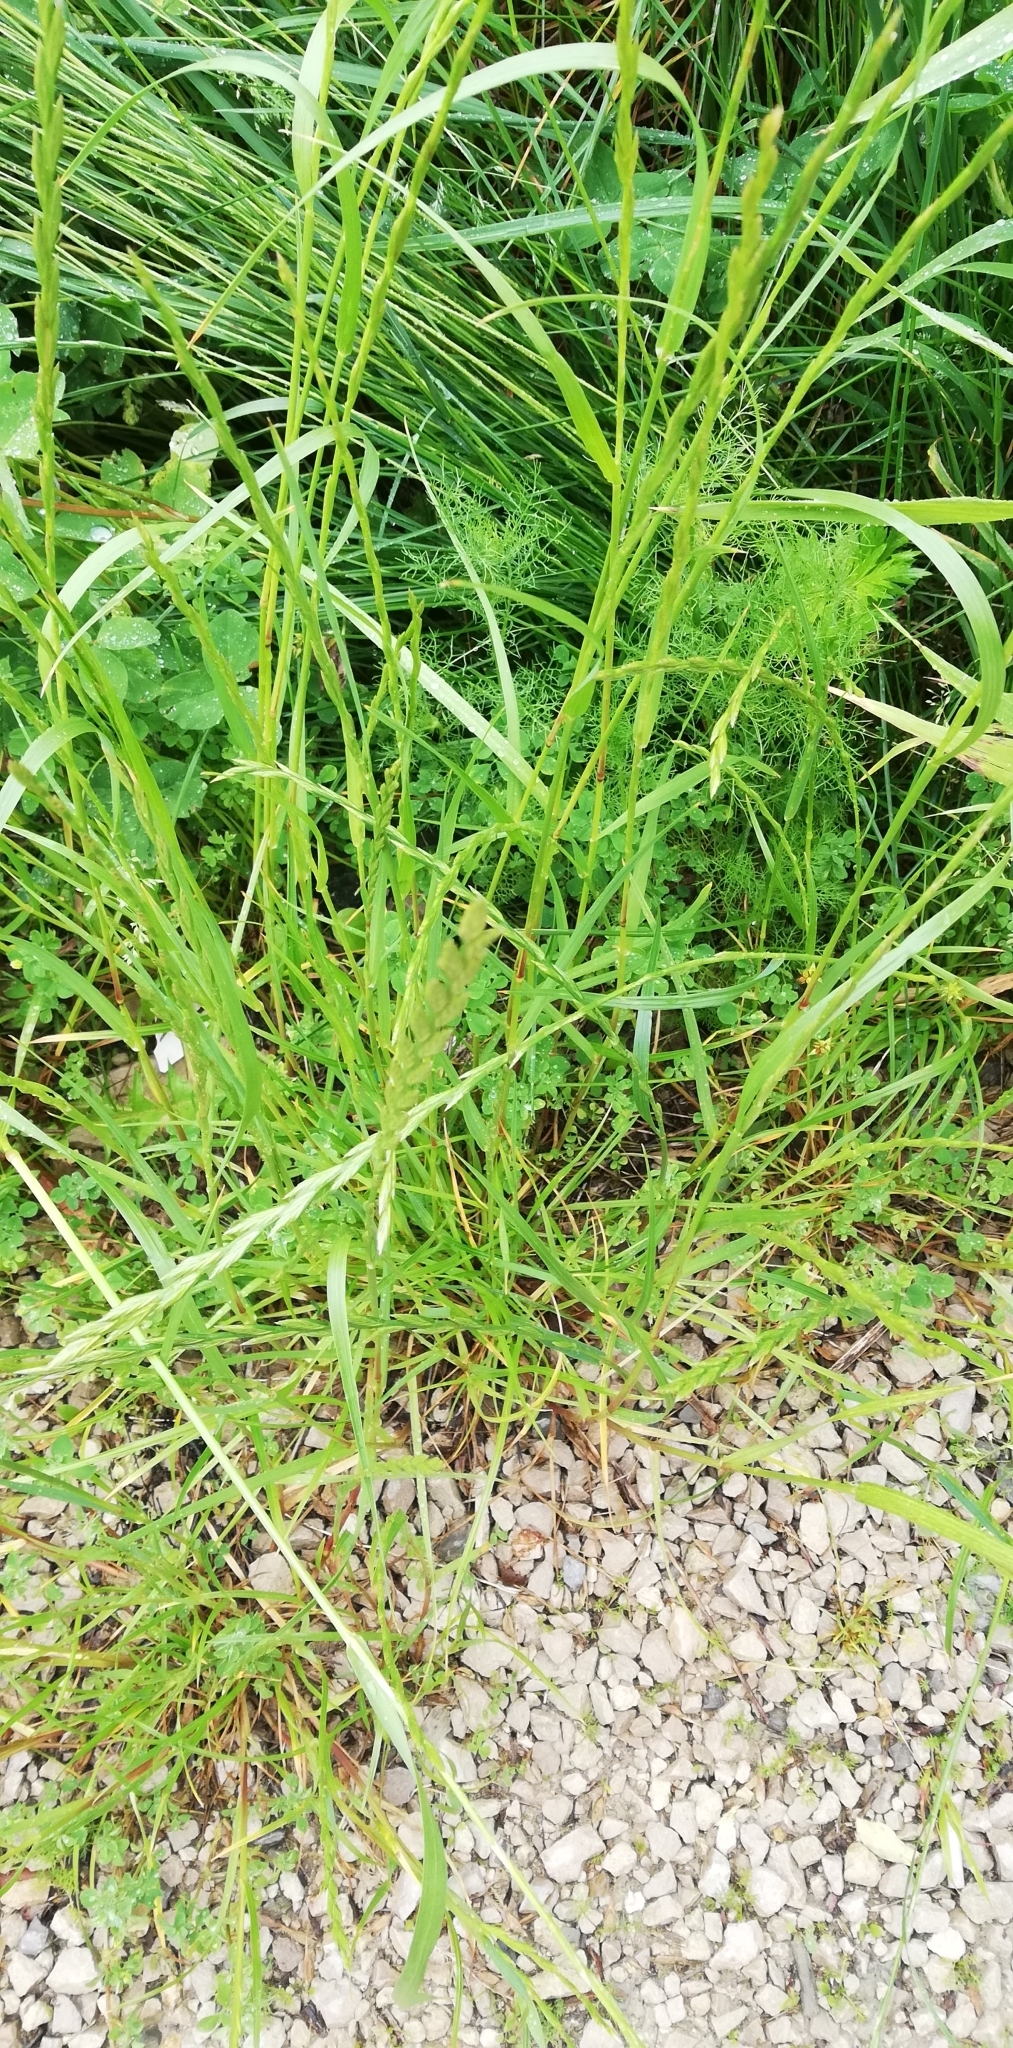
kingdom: Plantae
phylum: Tracheophyta
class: Liliopsida
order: Poales
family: Poaceae
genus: Lolium
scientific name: Lolium perenne
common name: Perennial ryegrass
